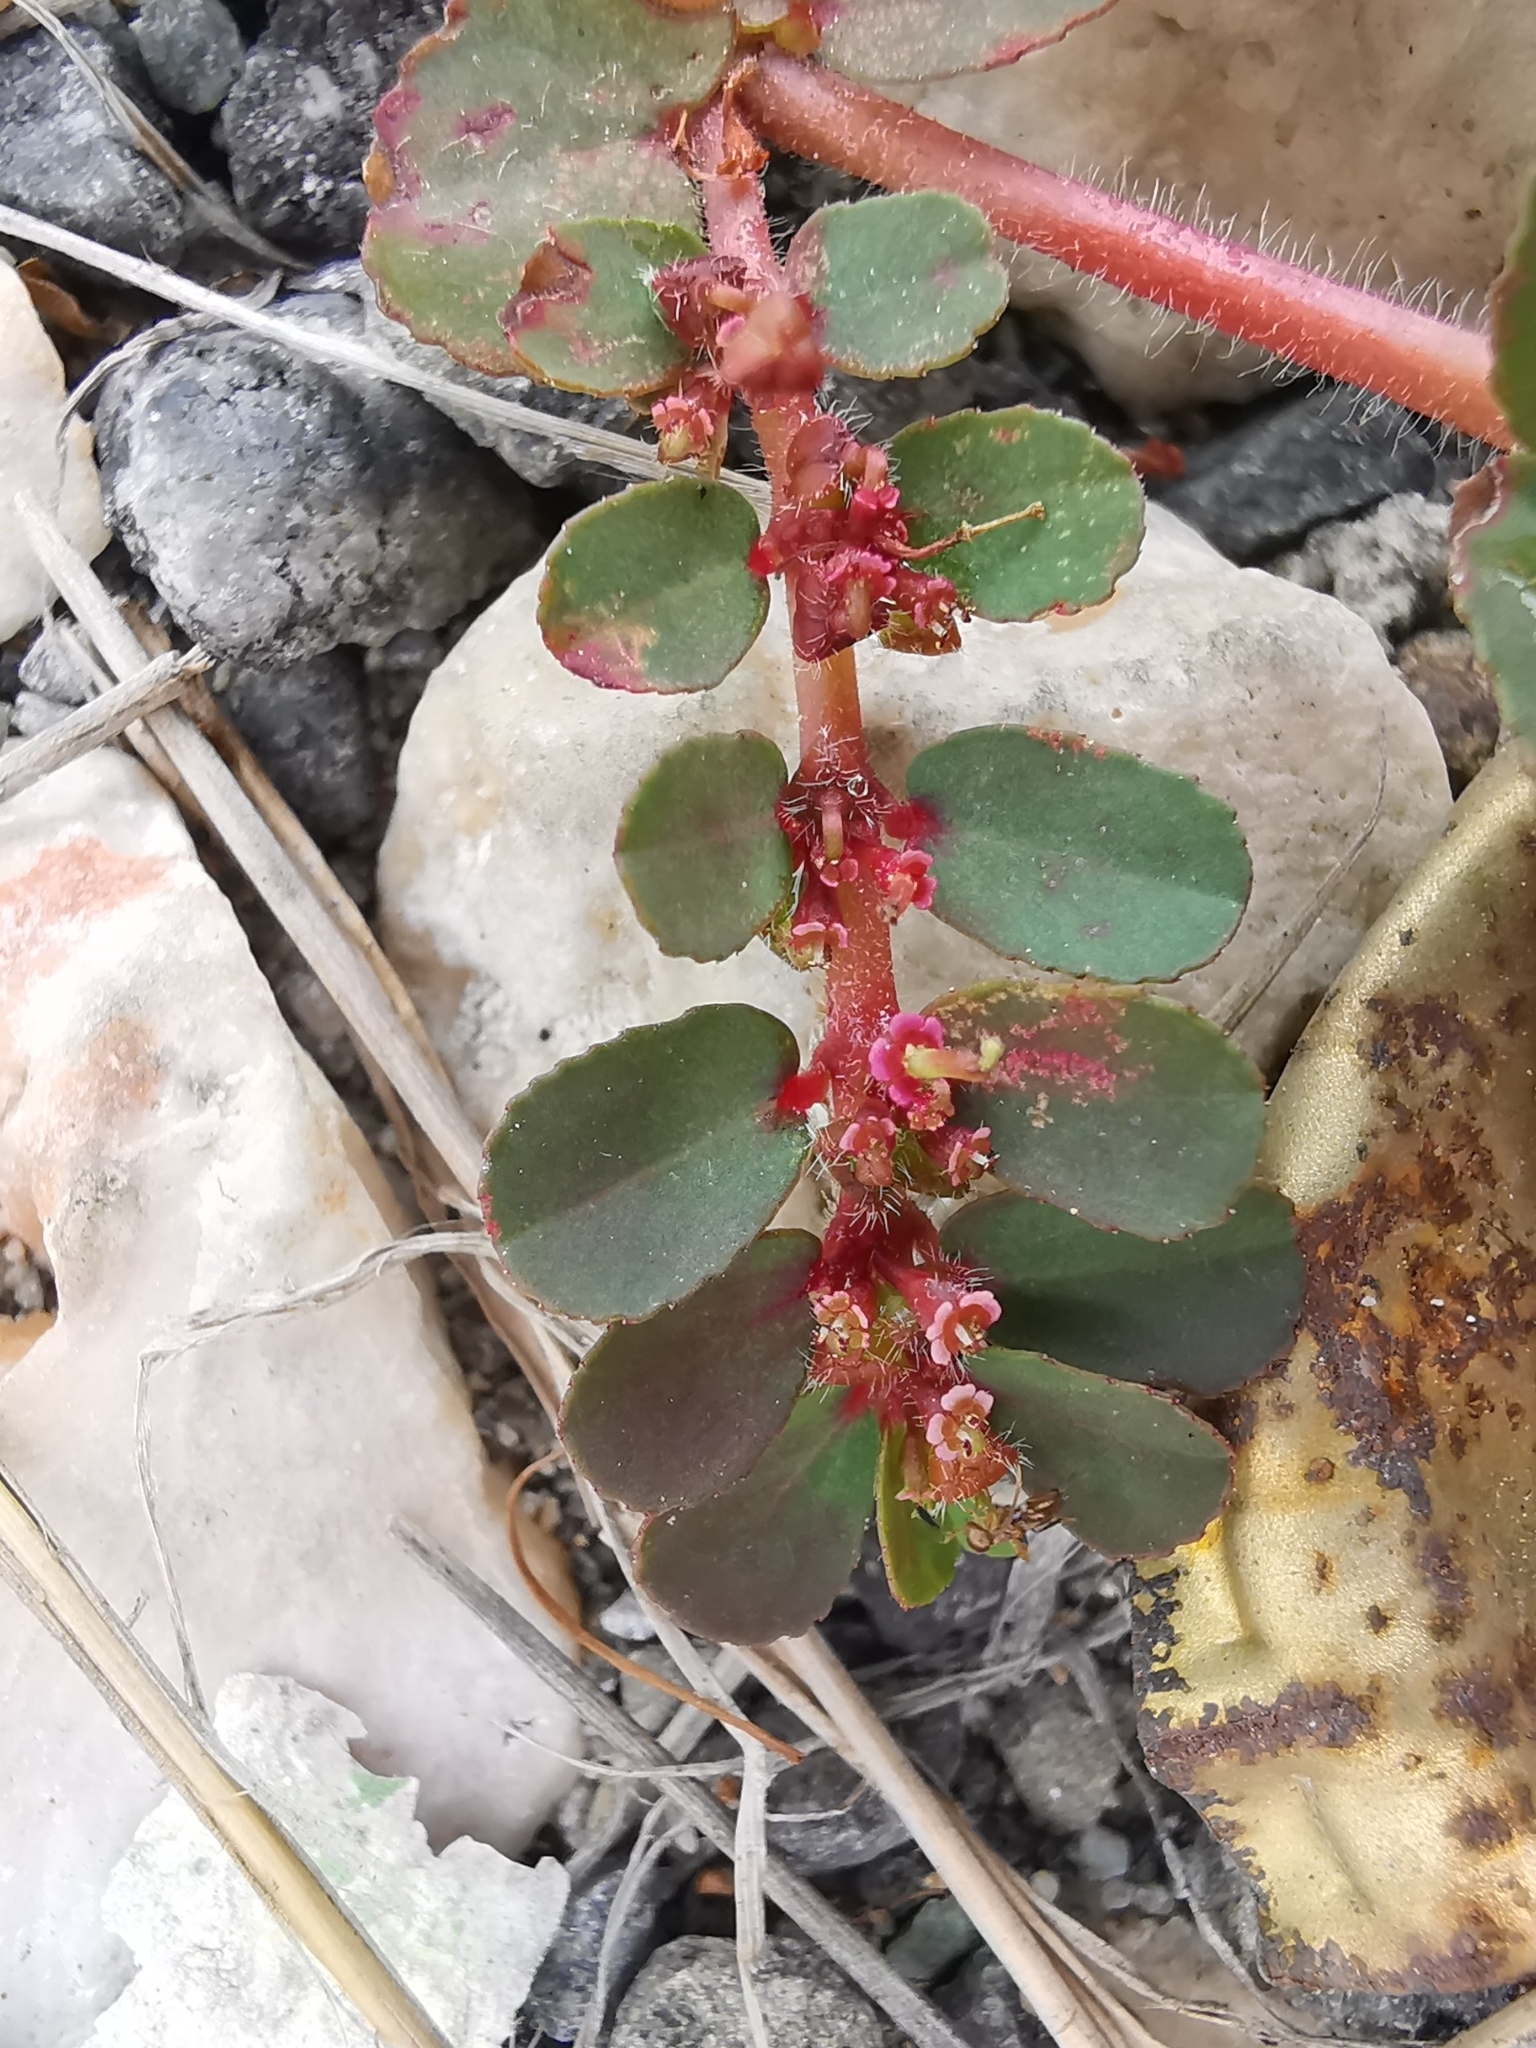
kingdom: Plantae
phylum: Tracheophyta
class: Magnoliopsida
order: Malpighiales
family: Euphorbiaceae
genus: Euphorbia
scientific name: Euphorbia mendezii
